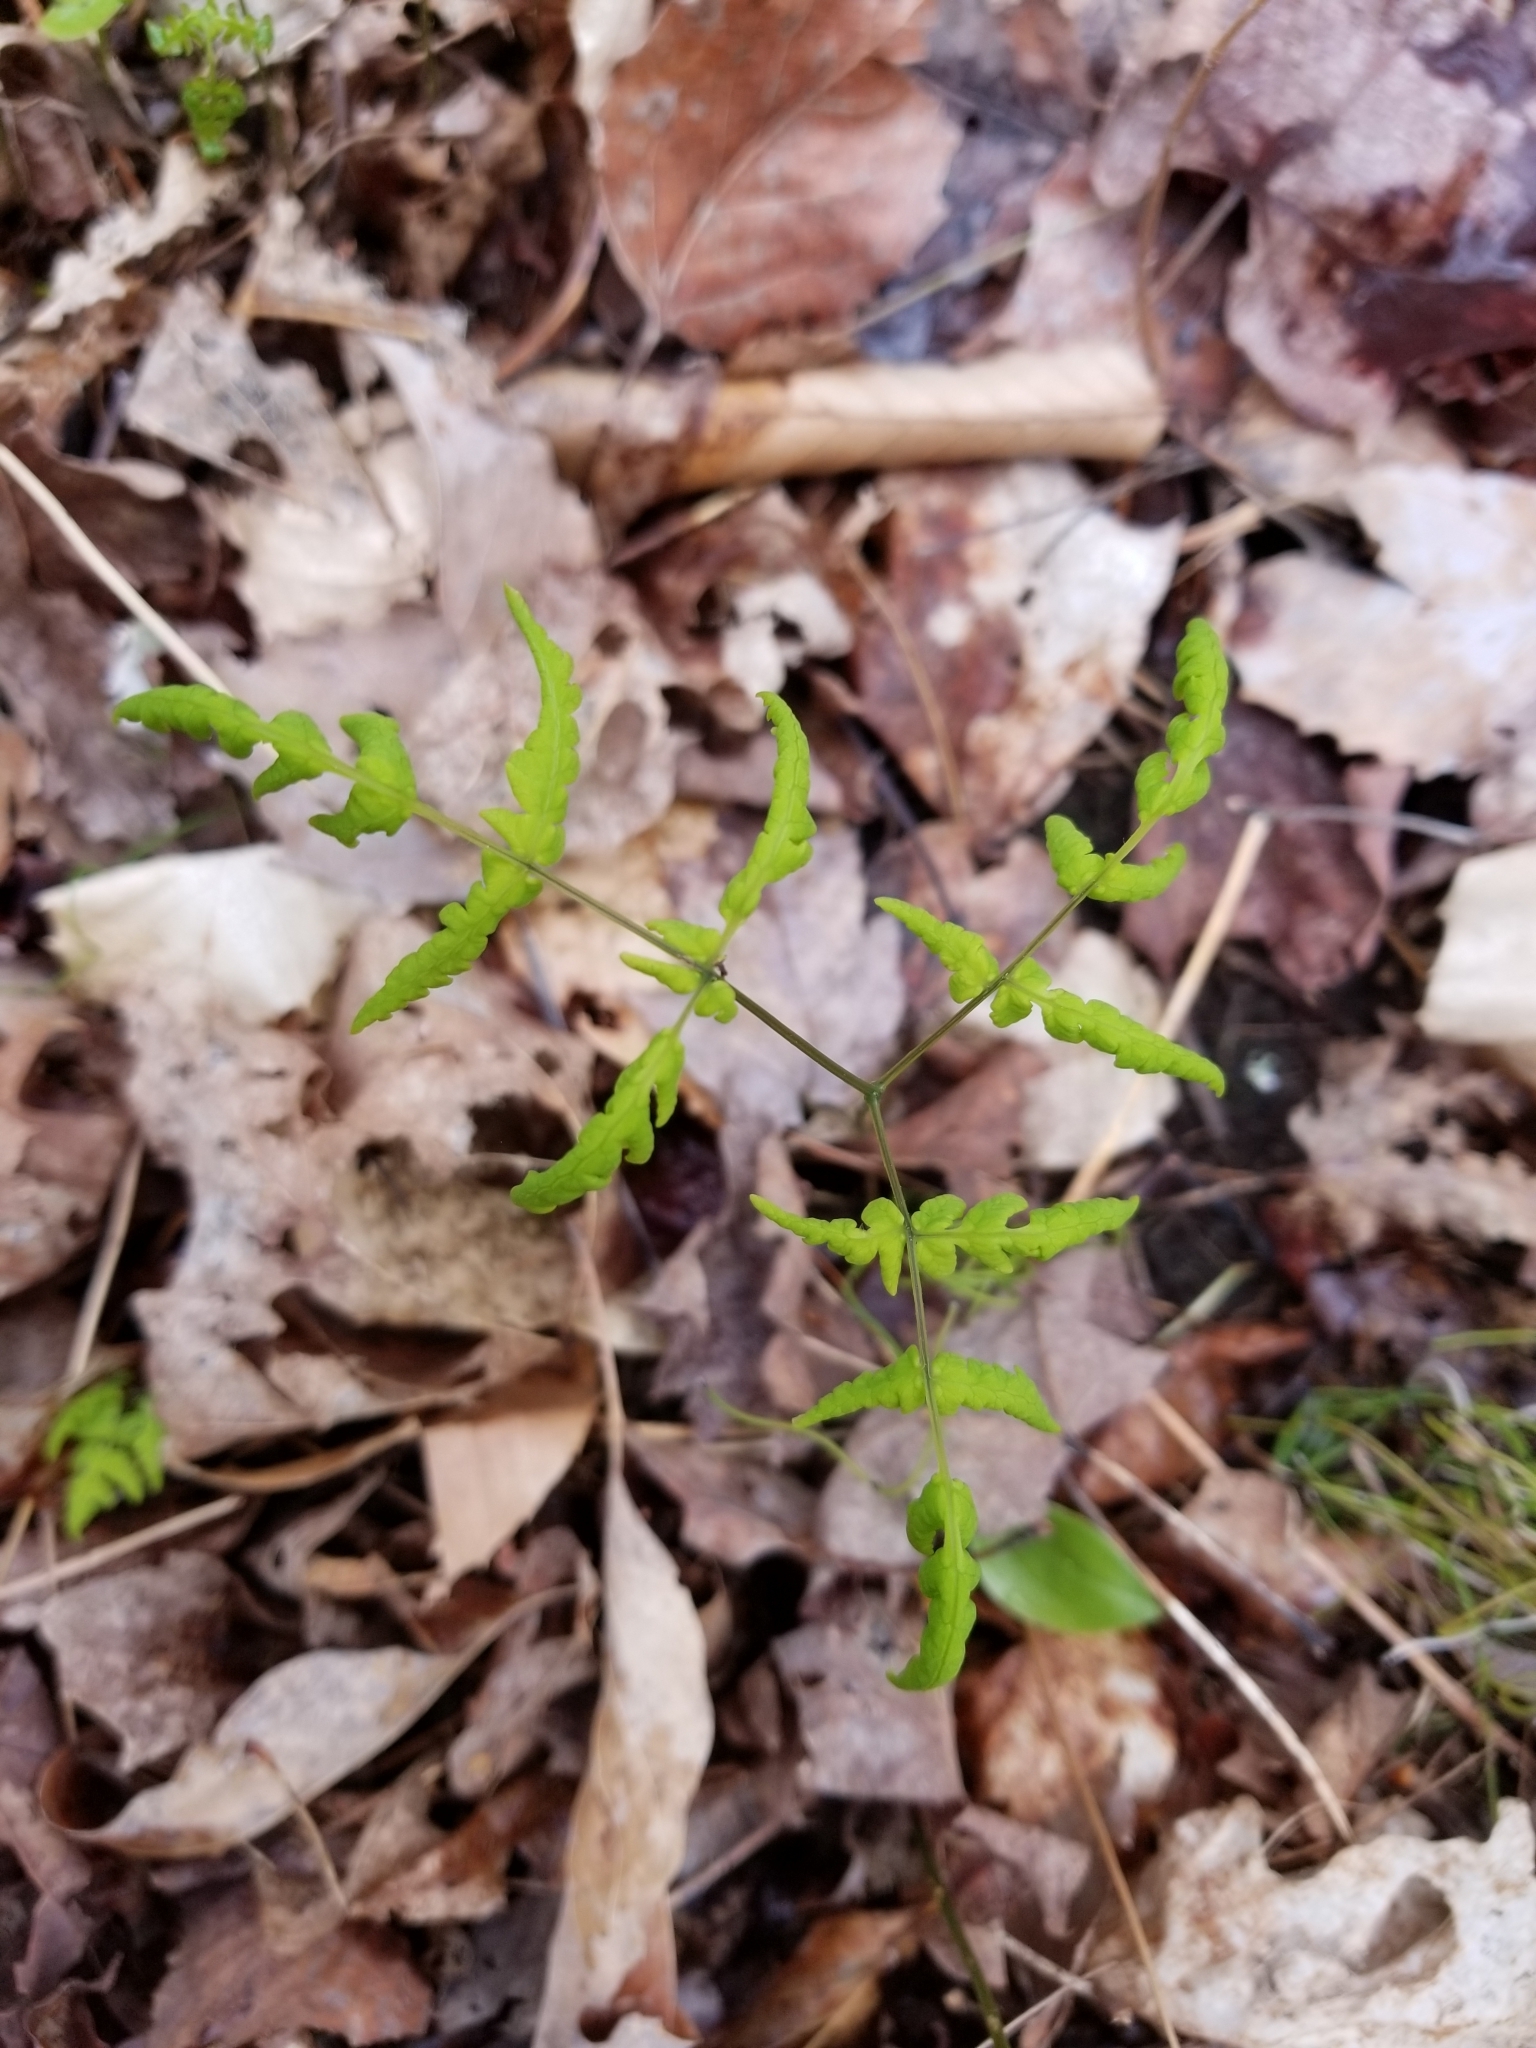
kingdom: Plantae
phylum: Tracheophyta
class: Polypodiopsida
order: Polypodiales
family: Cystopteridaceae
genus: Gymnocarpium
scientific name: Gymnocarpium dryopteris
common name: Oak fern
